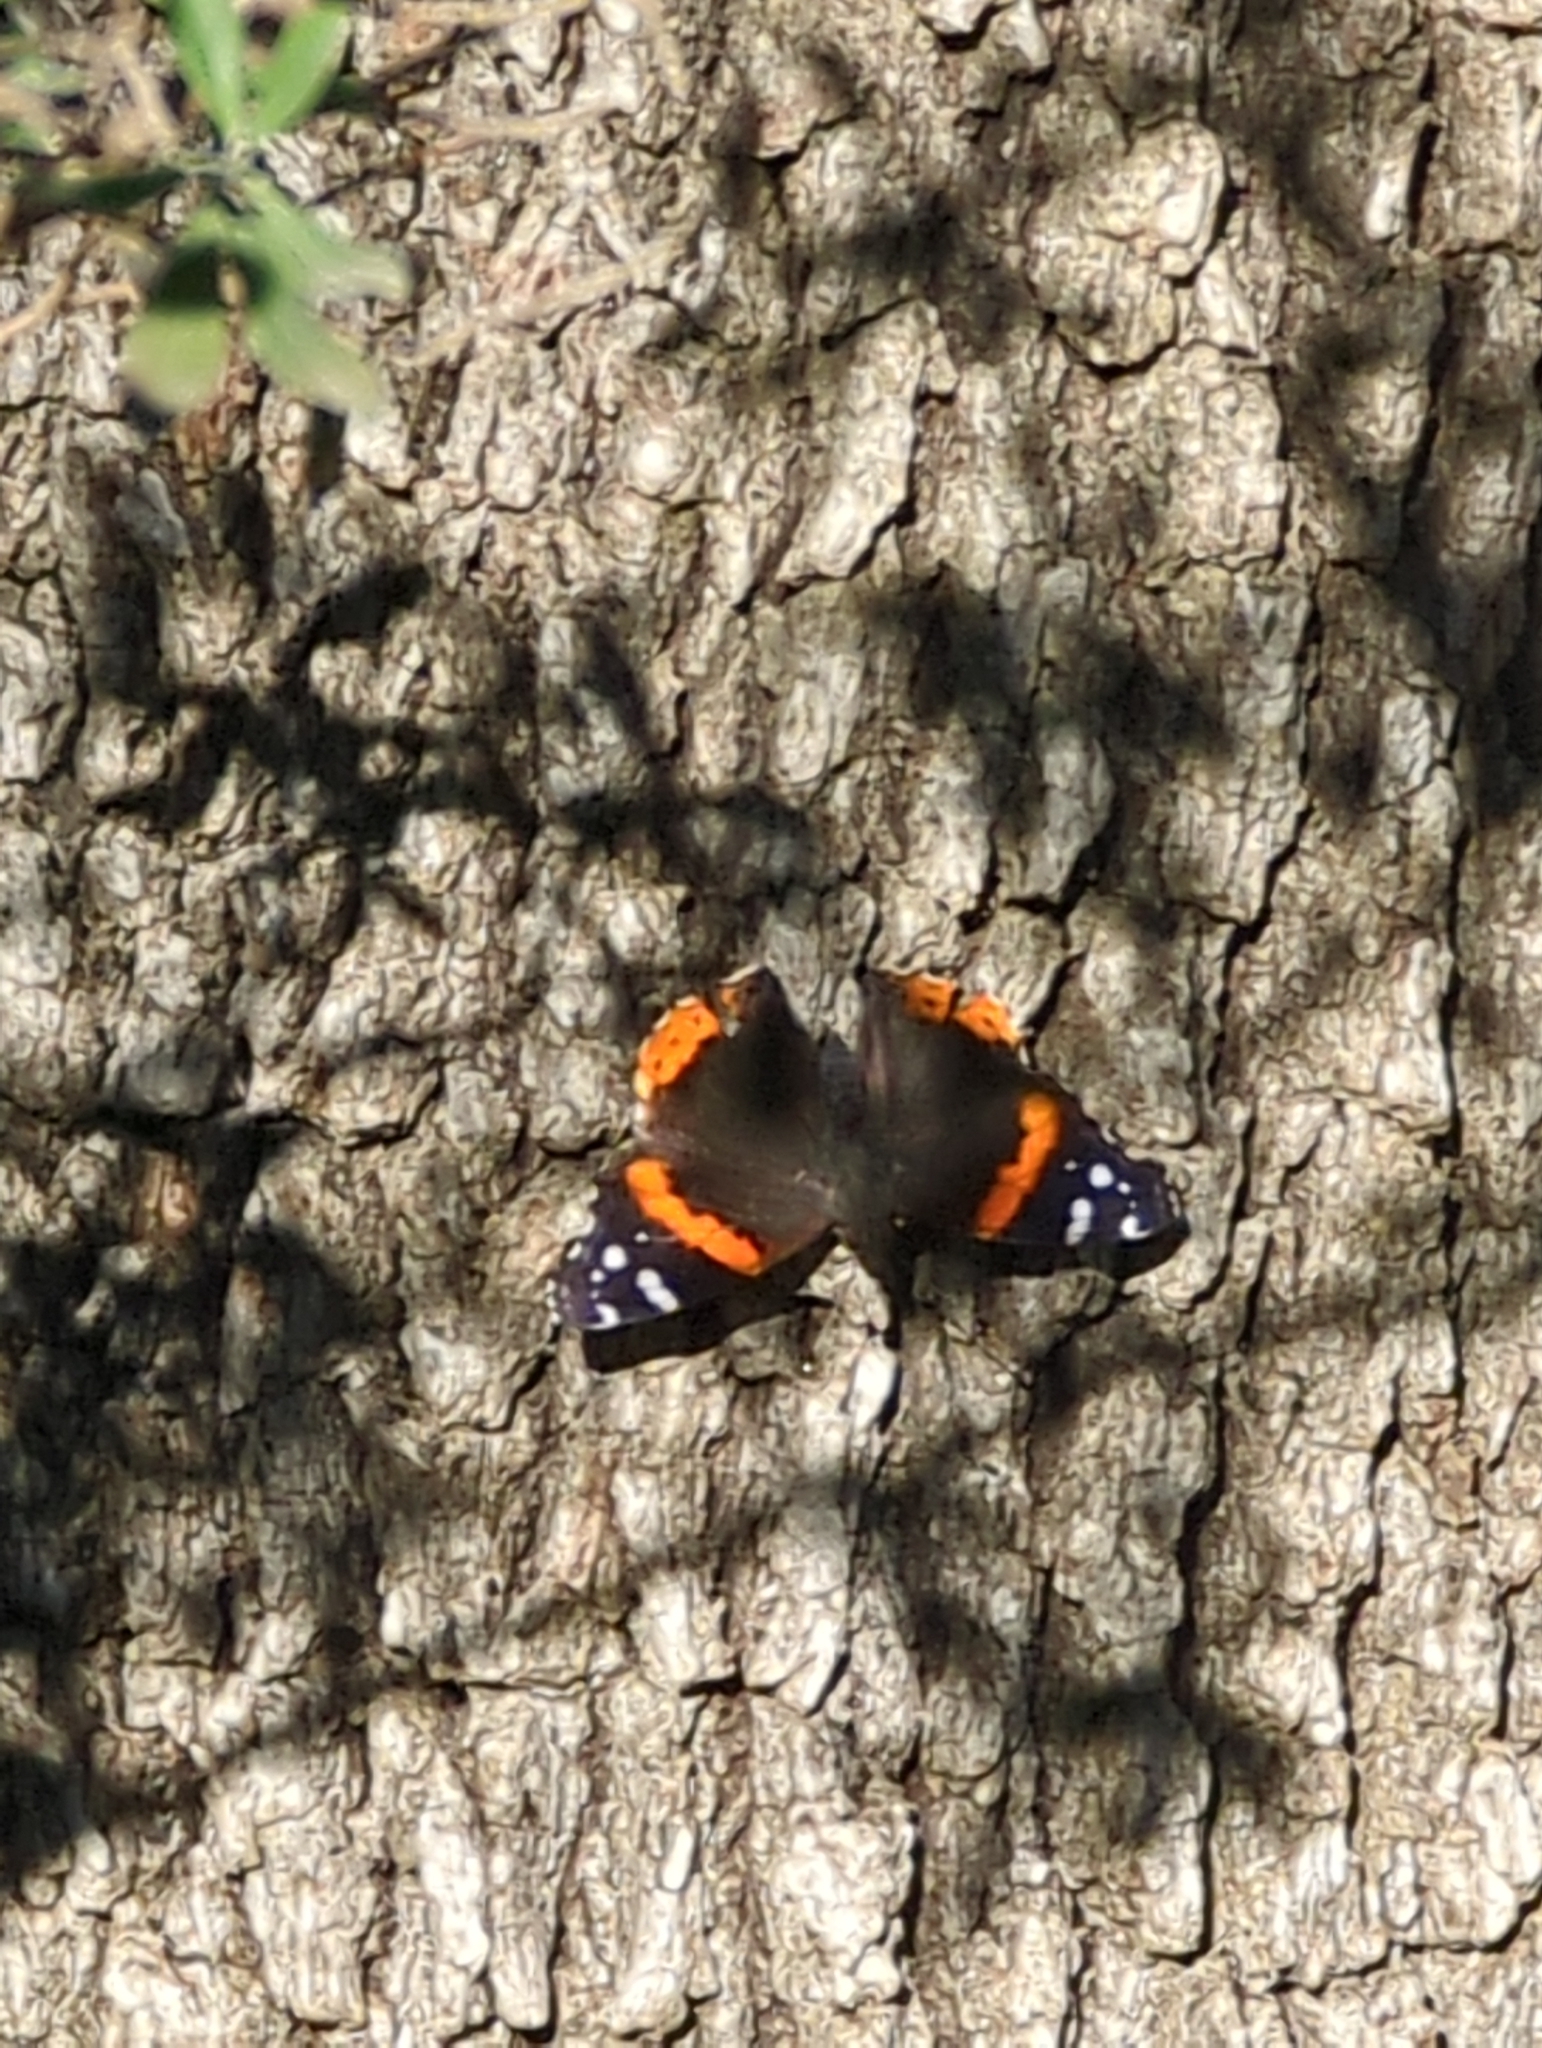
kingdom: Animalia
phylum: Arthropoda
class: Insecta
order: Lepidoptera
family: Nymphalidae
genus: Vanessa
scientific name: Vanessa atalanta
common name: Red admiral
